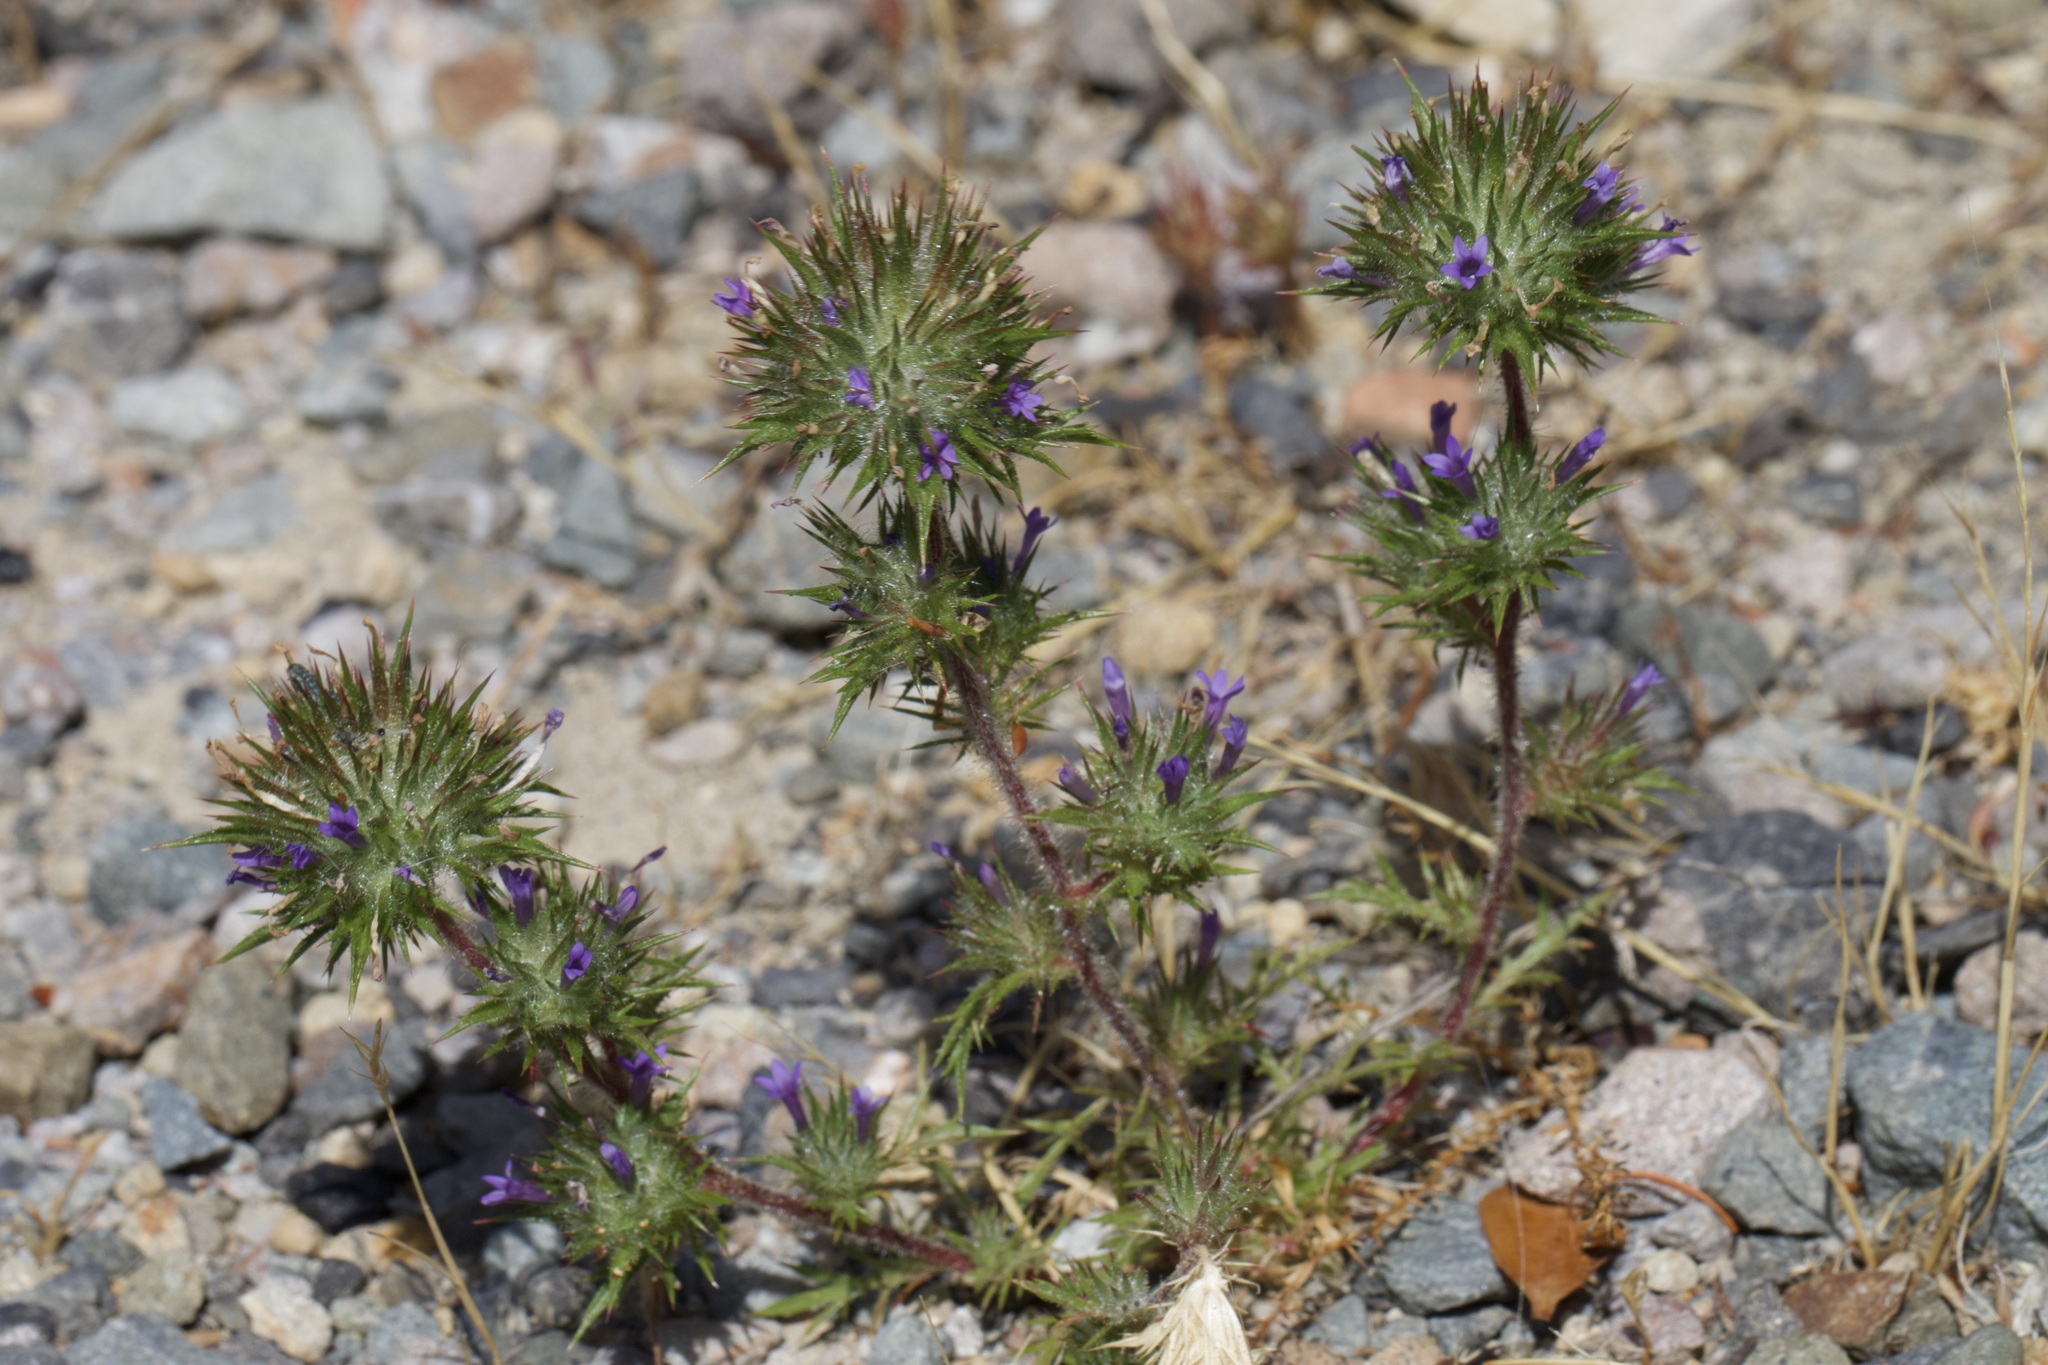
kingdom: Plantae
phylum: Tracheophyta
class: Magnoliopsida
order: Ericales
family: Polemoniaceae
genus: Navarretia
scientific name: Navarretia squarrosa
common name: Skunkweed
